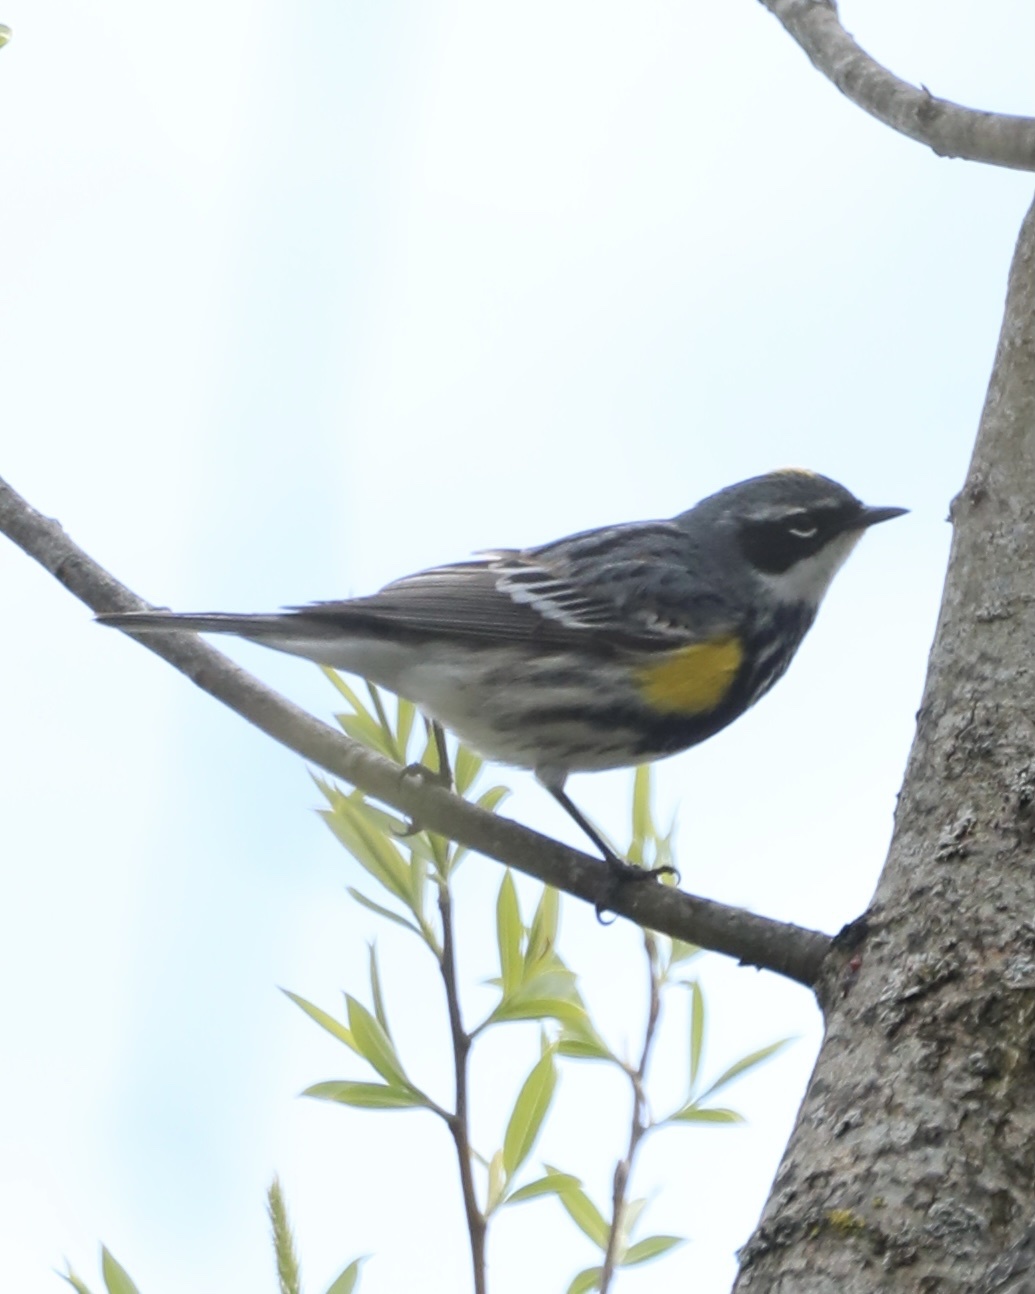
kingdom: Animalia
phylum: Chordata
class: Aves
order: Passeriformes
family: Parulidae
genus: Setophaga
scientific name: Setophaga coronata
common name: Myrtle warbler
